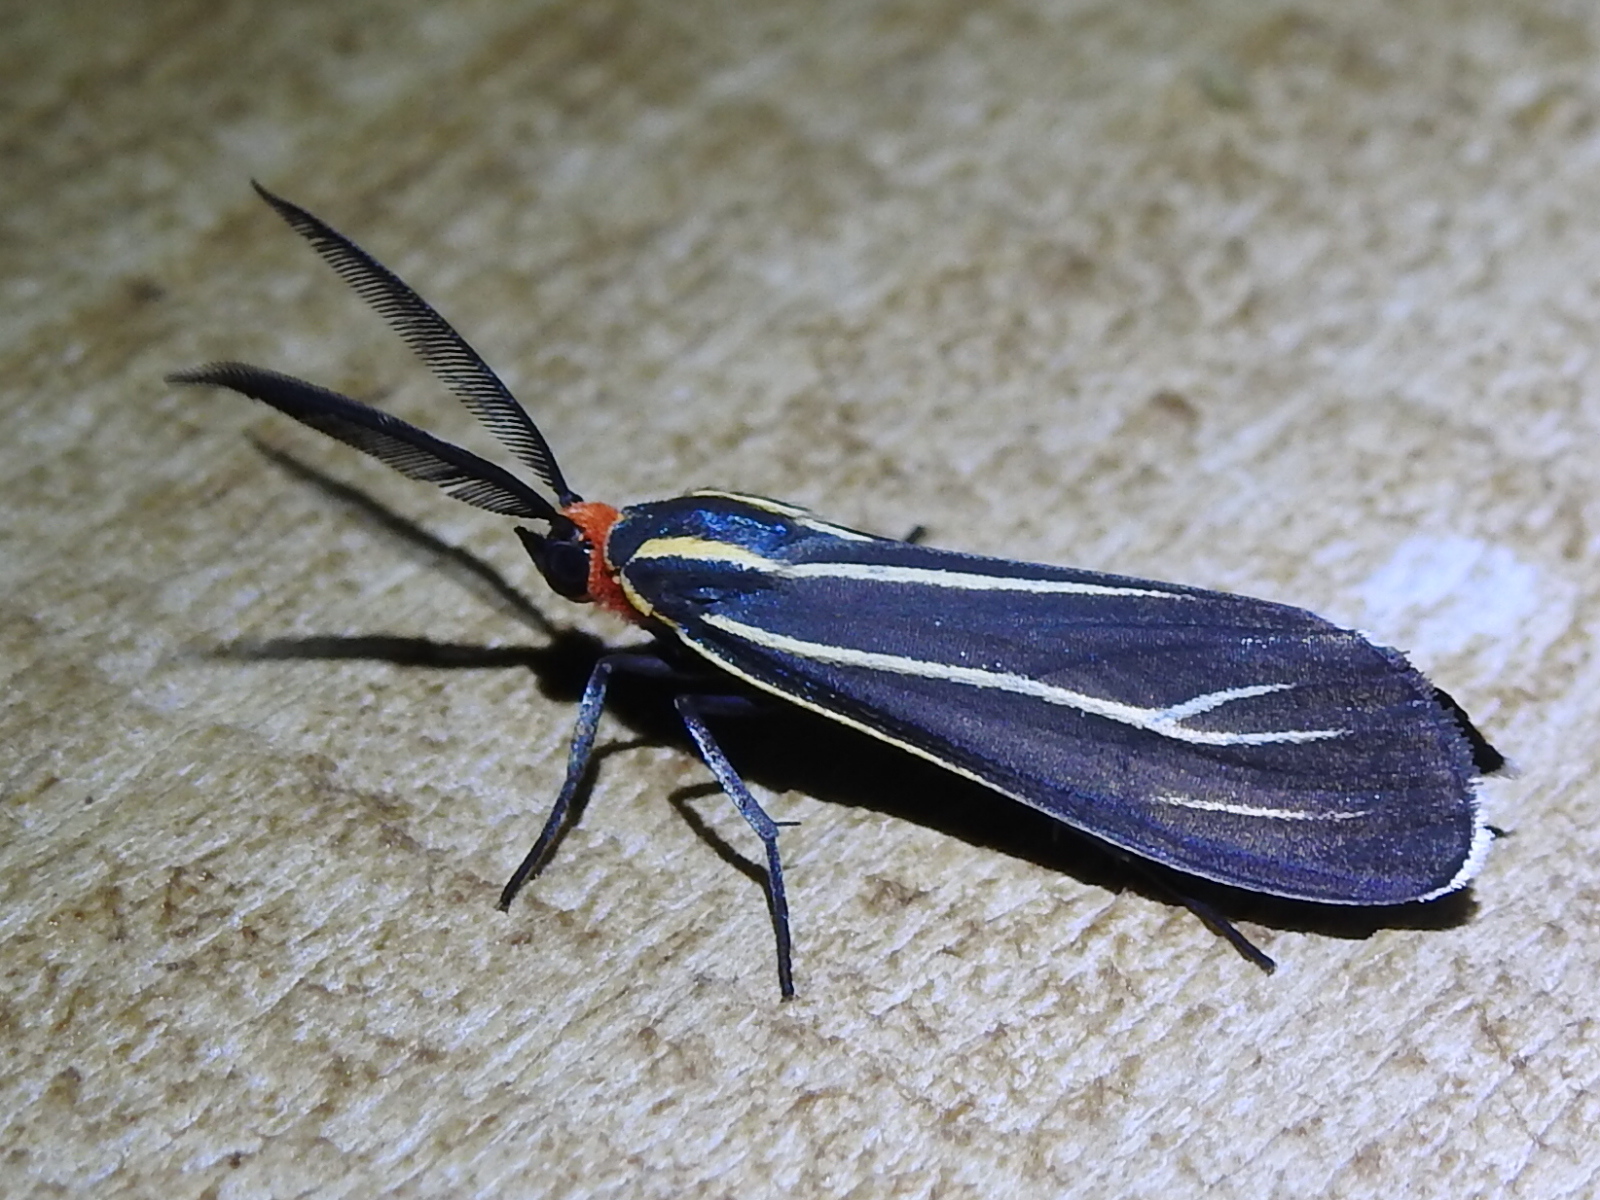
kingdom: Animalia
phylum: Arthropoda
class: Insecta
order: Lepidoptera
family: Erebidae
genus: Ctenucha
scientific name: Ctenucha venosa
